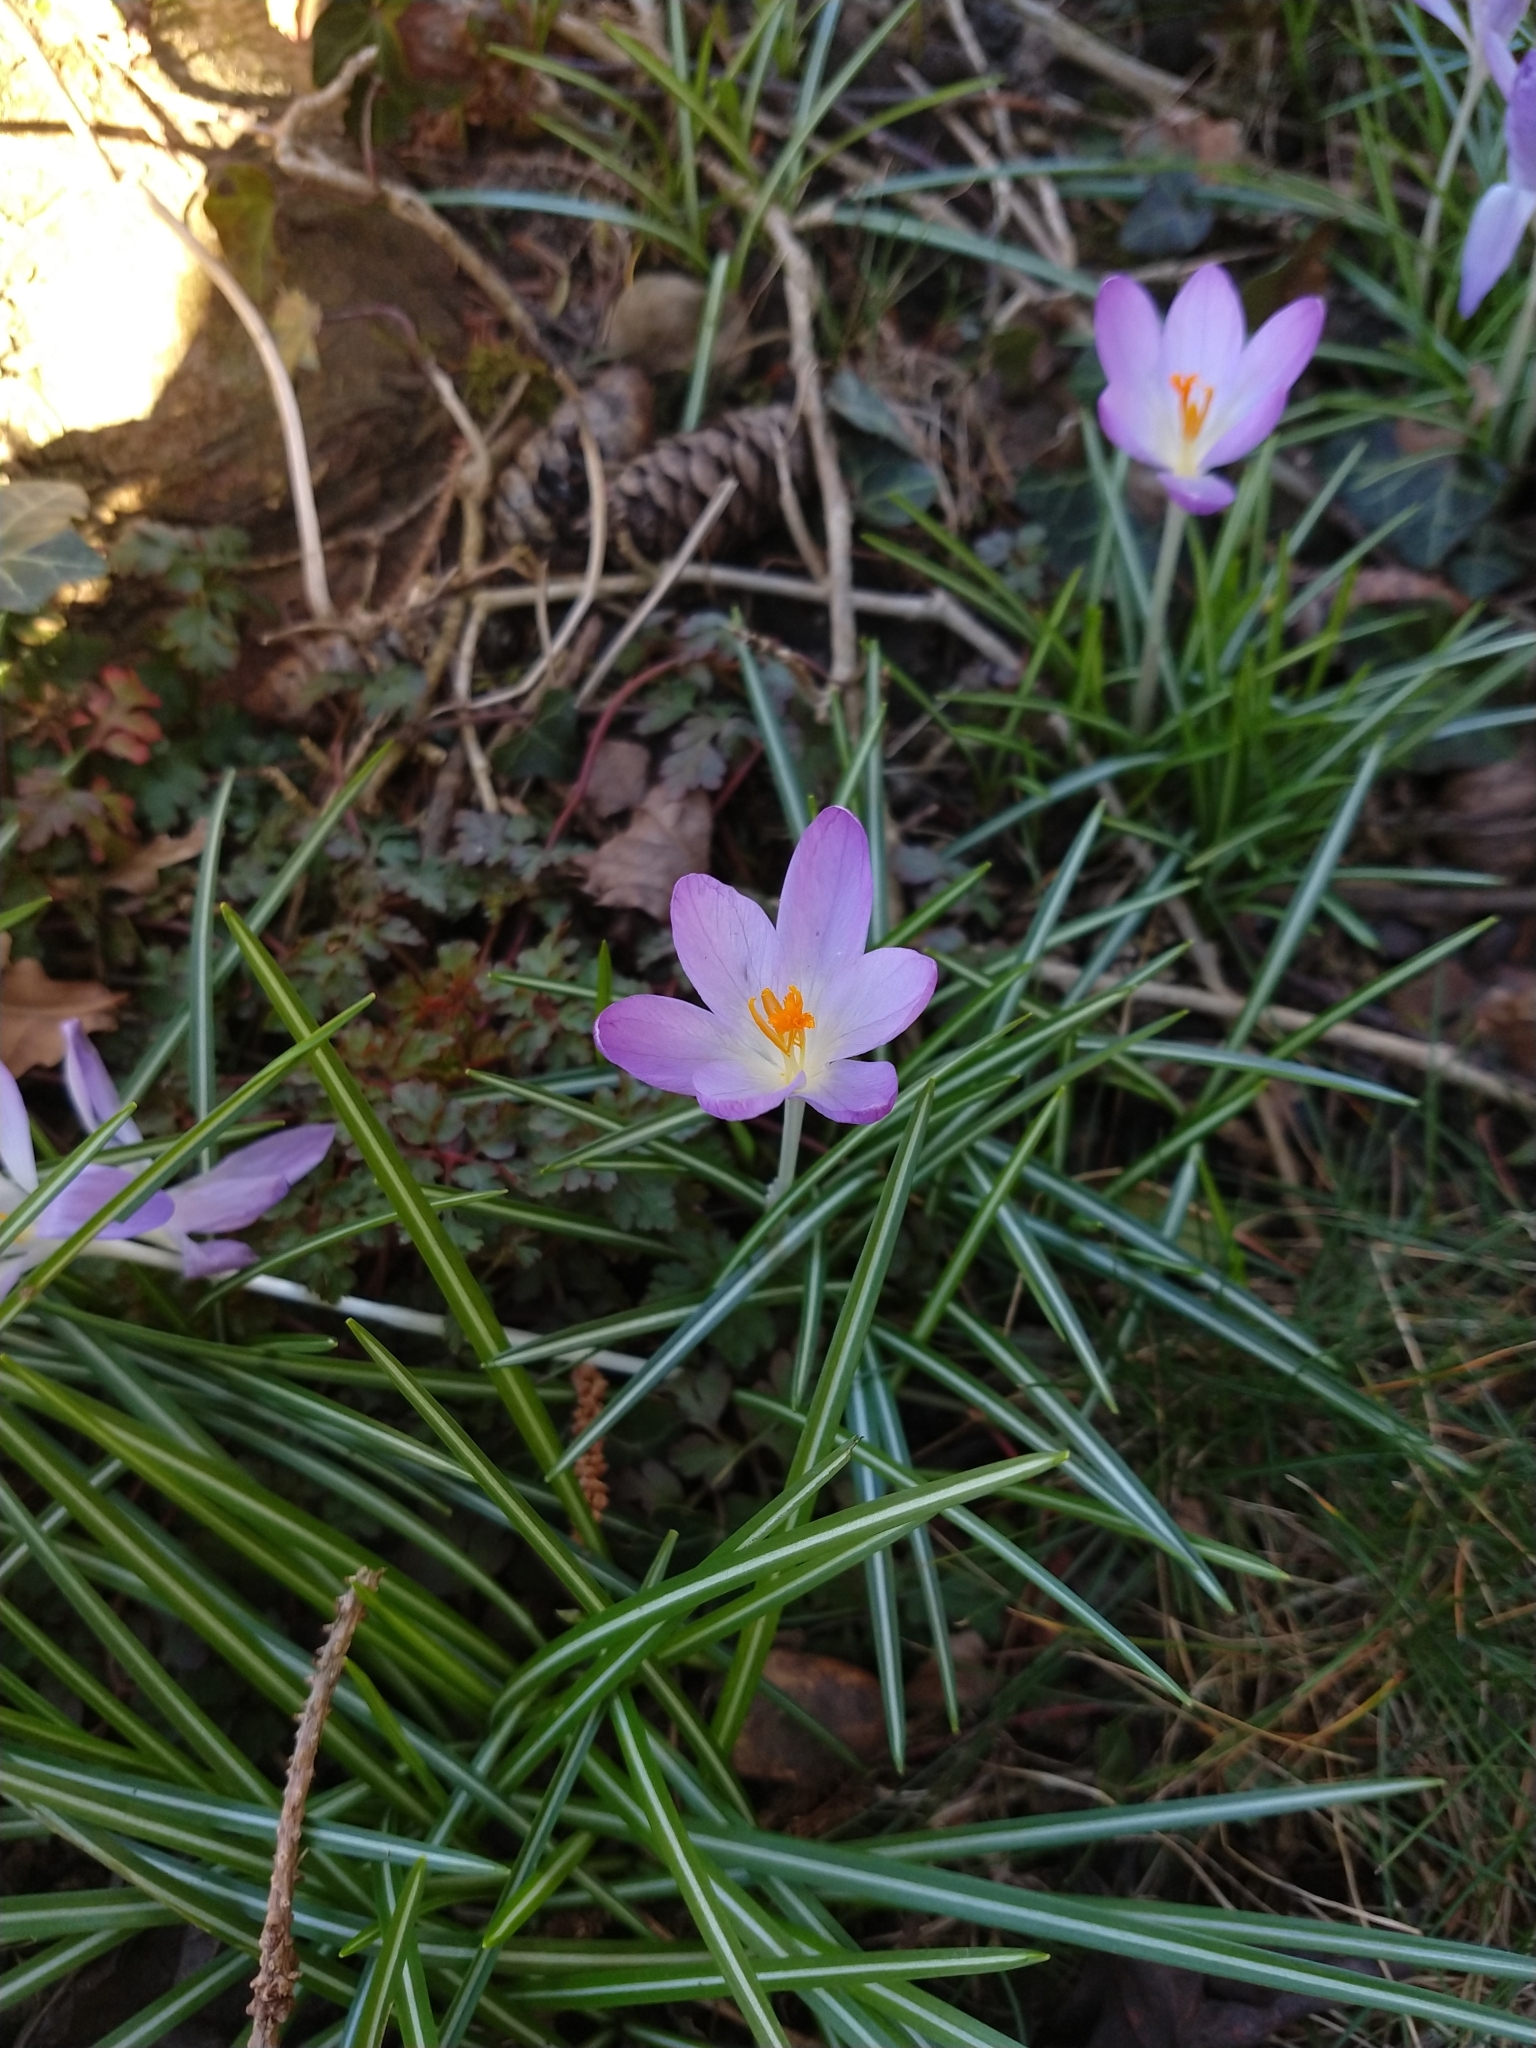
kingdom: Plantae
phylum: Tracheophyta
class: Liliopsida
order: Asparagales
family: Iridaceae
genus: Crocus
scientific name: Crocus tommasinianus
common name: Early crocus
